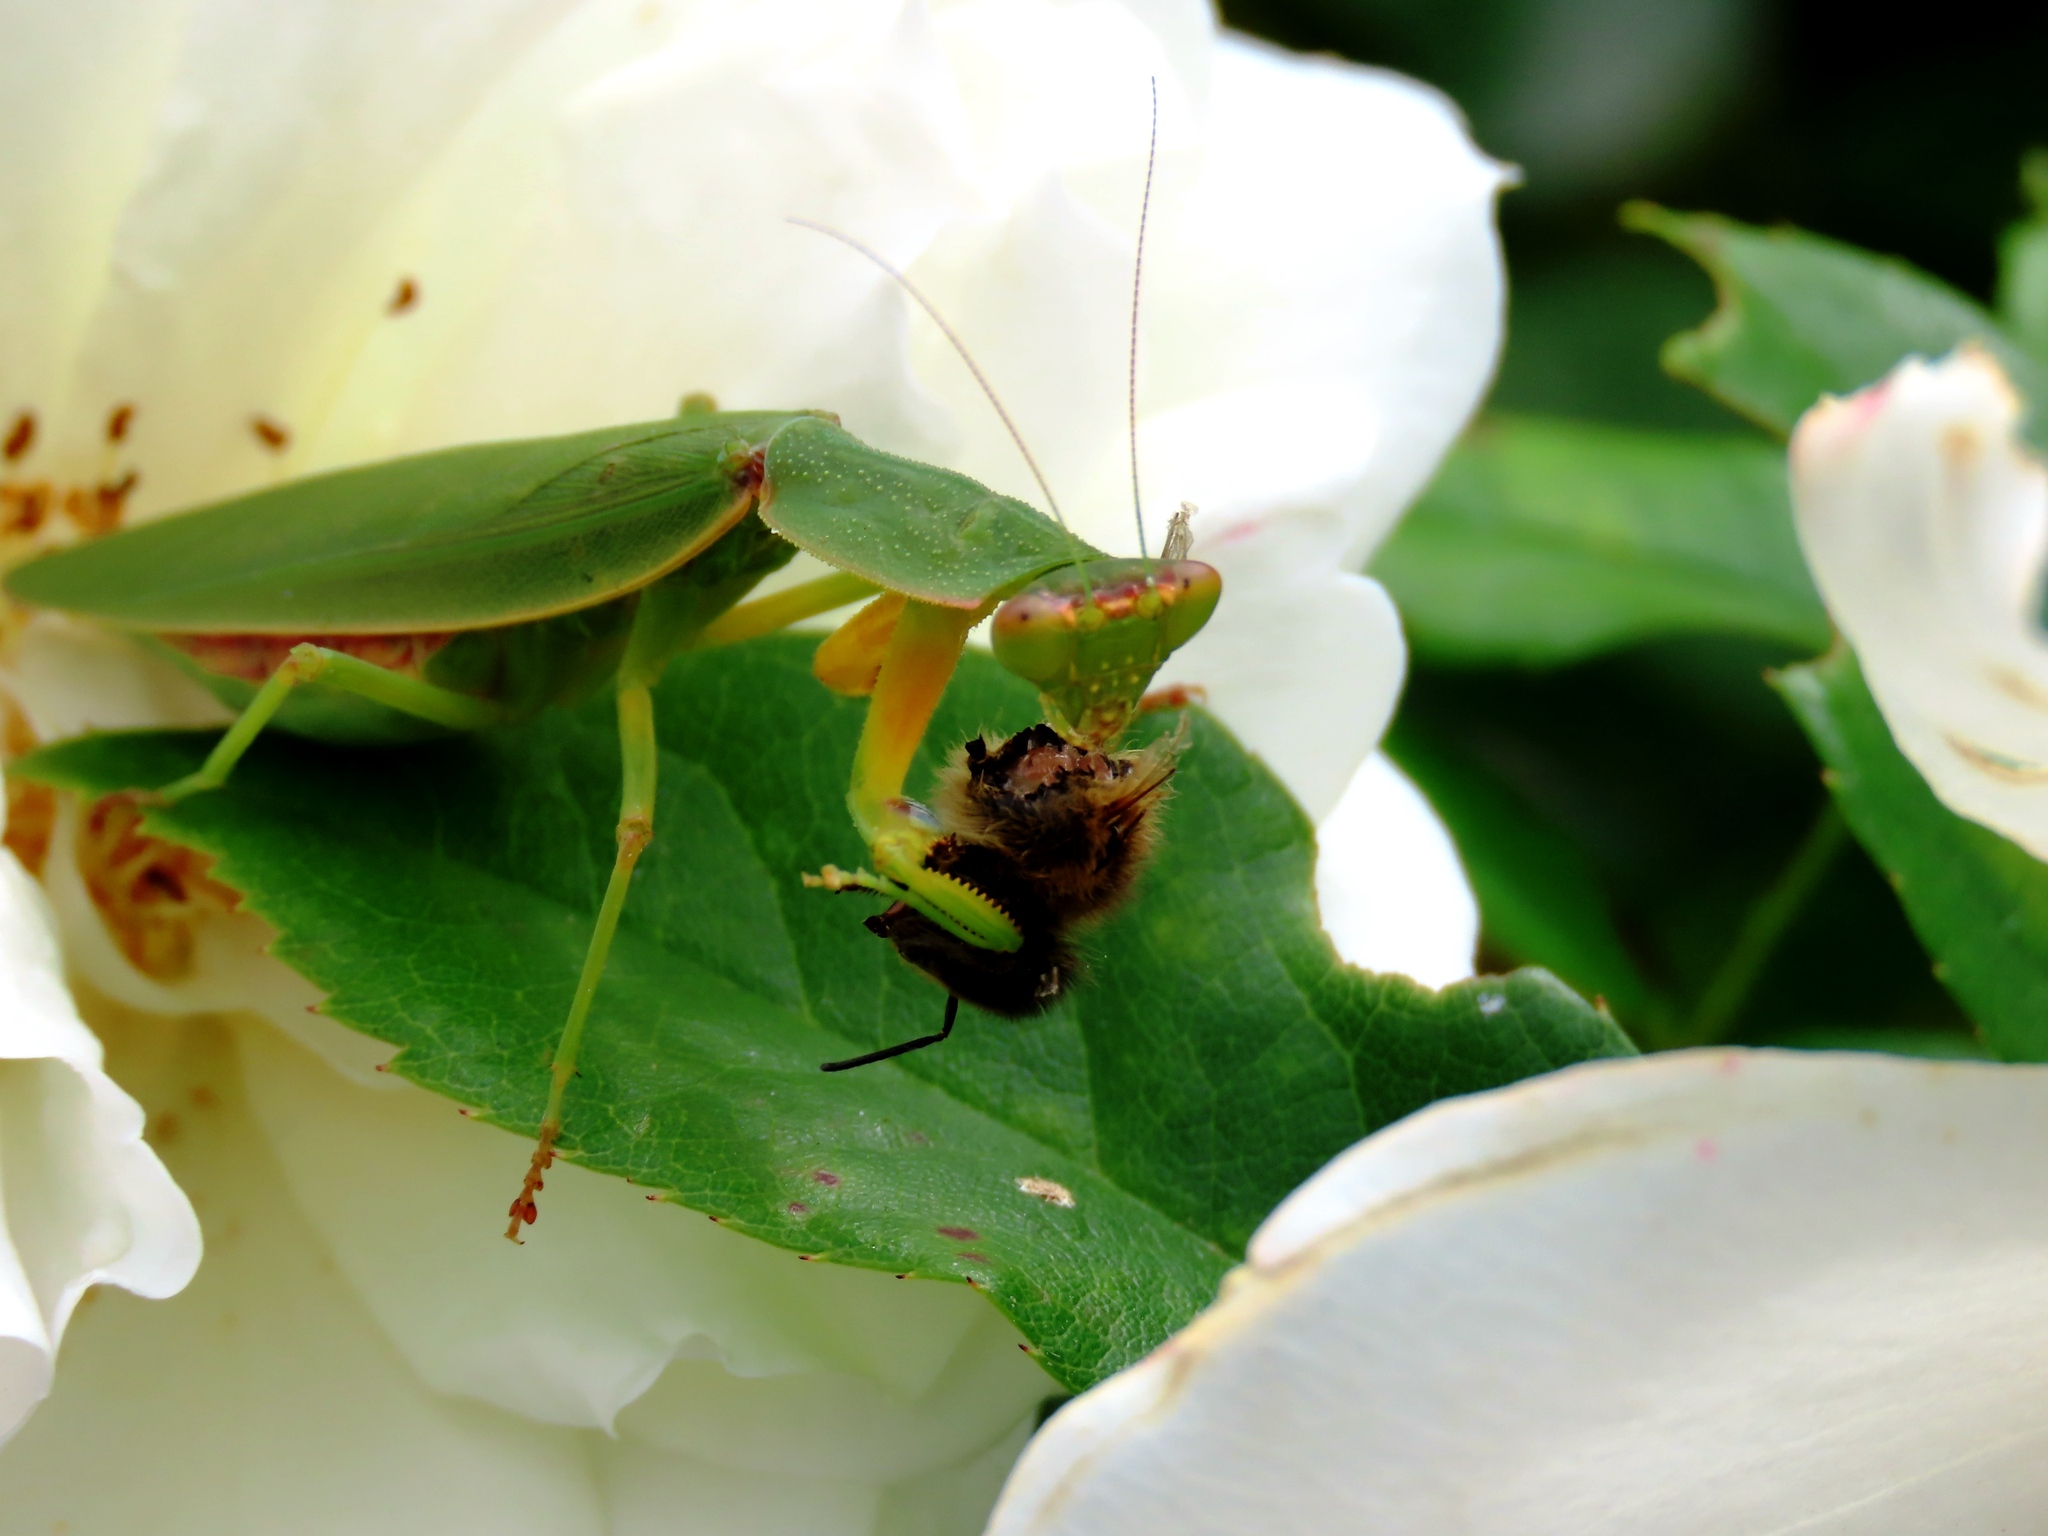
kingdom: Animalia
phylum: Arthropoda
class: Insecta
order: Mantodea
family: Mantidae
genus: Orthodera
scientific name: Orthodera ministralis
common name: Mantis
